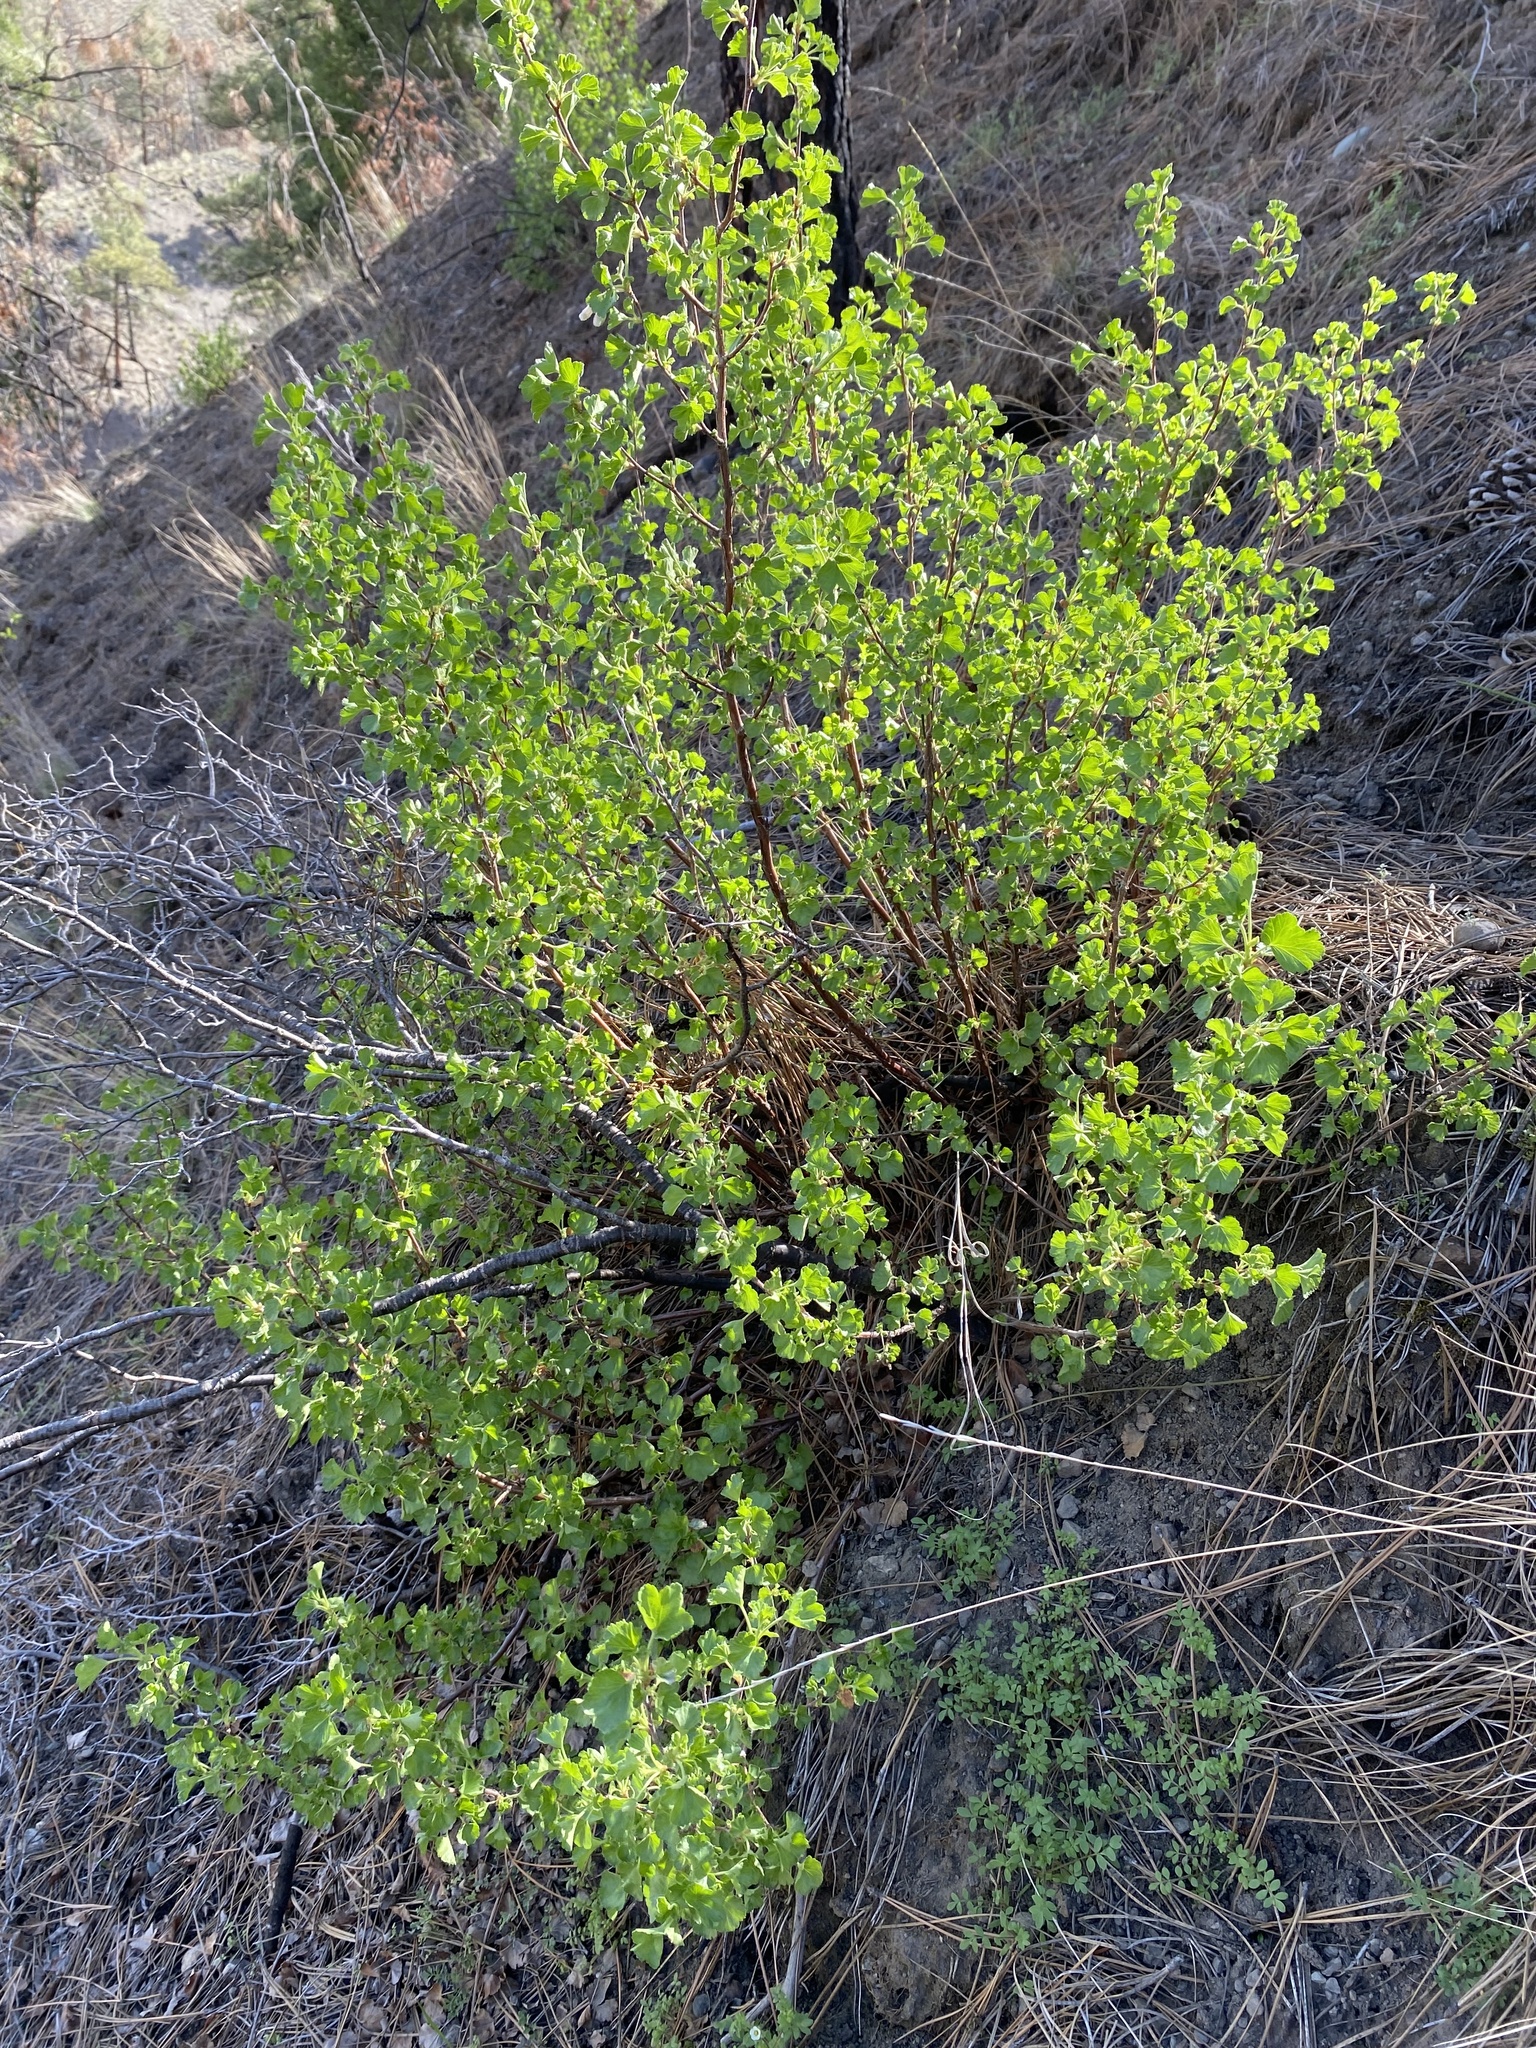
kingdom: Plantae
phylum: Tracheophyta
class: Magnoliopsida
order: Saxifragales
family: Grossulariaceae
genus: Ribes
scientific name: Ribes cereum
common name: Wax currant
